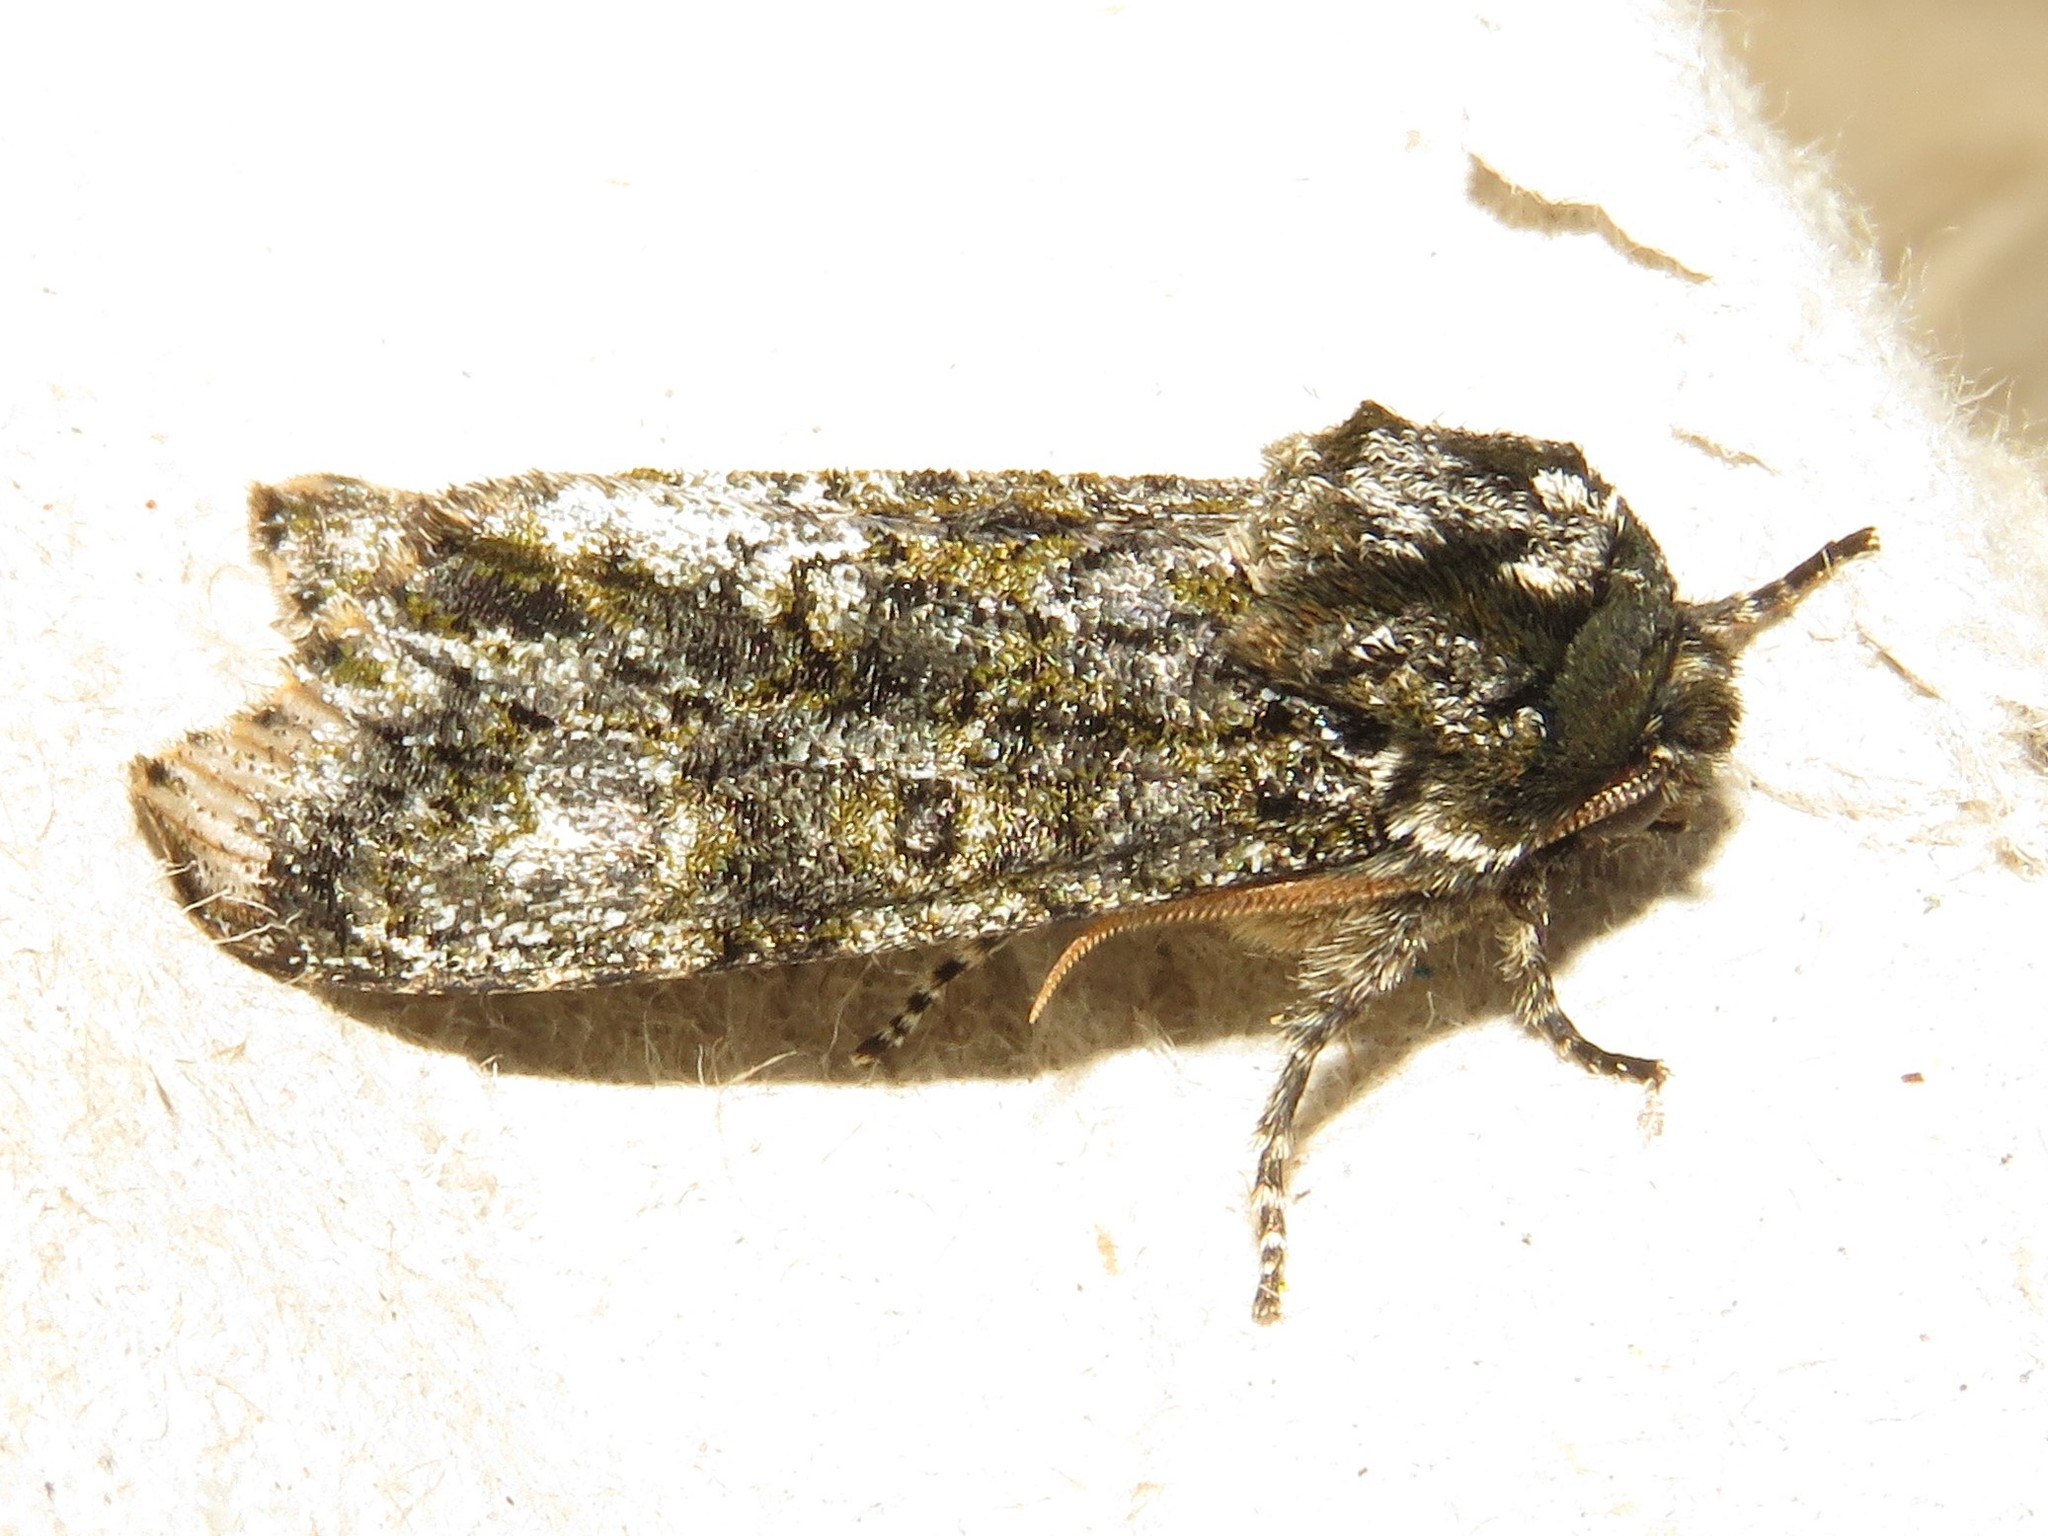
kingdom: Animalia
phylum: Arthropoda
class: Insecta
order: Lepidoptera
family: Noctuidae
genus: Psaphida
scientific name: Psaphida grotei
